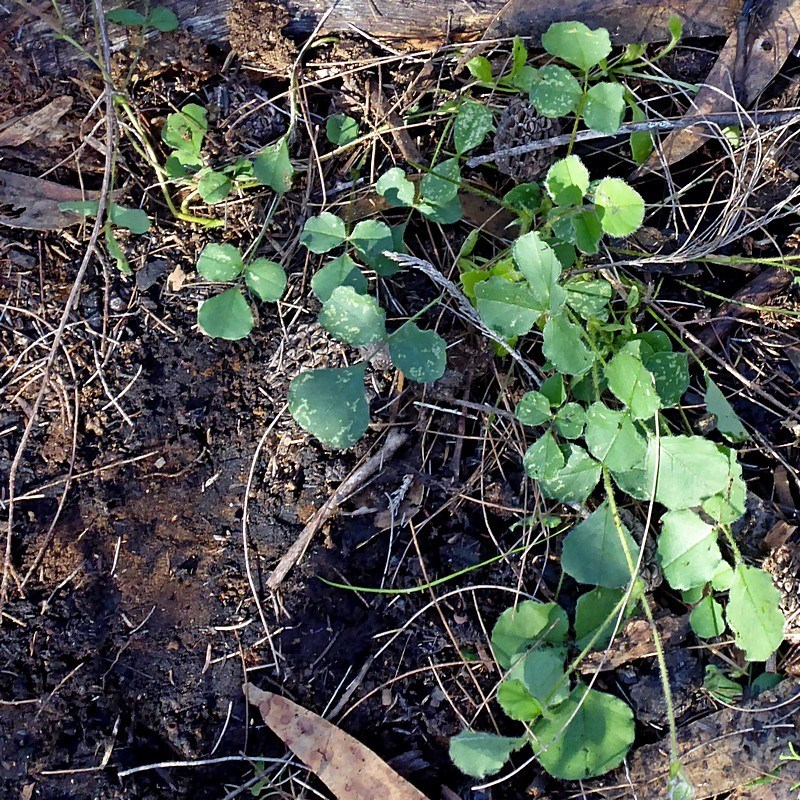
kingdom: Plantae
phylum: Tracheophyta
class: Magnoliopsida
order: Fabales
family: Fabaceae
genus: Kennedia
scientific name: Kennedia prostrata
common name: Running-postman
